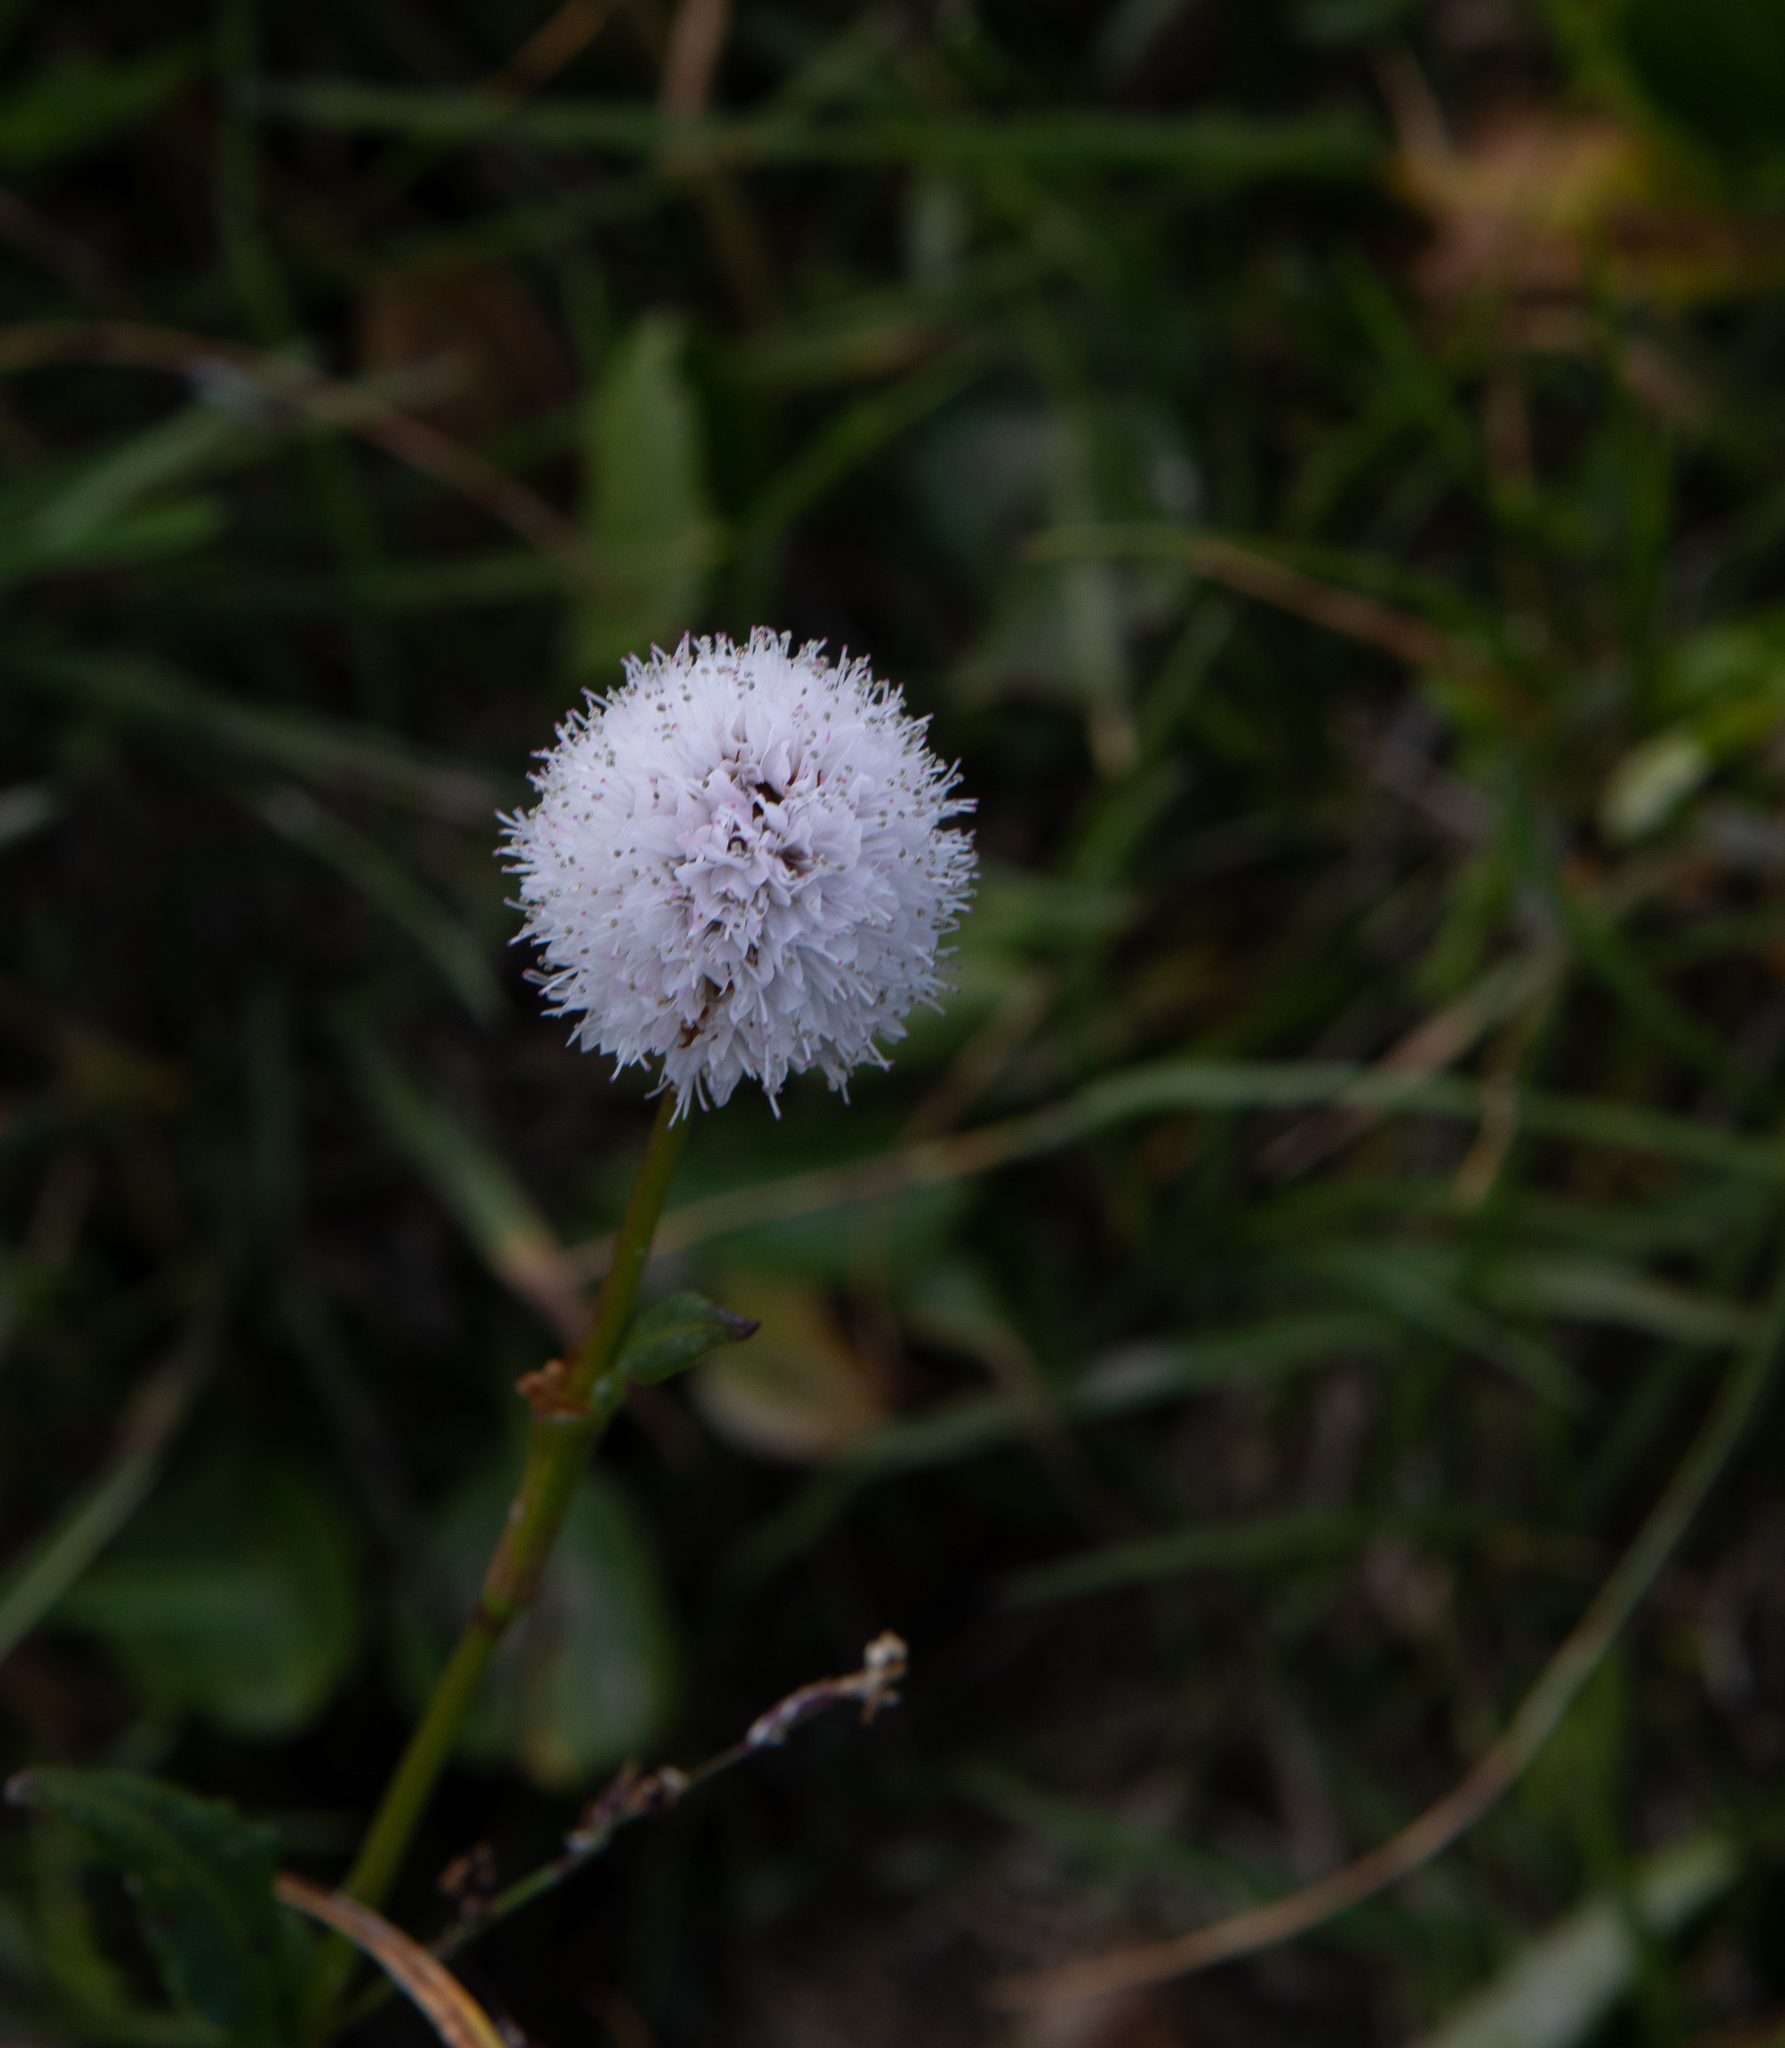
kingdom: Plantae
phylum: Tracheophyta
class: Magnoliopsida
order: Caryophyllales
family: Polygonaceae
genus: Bistorta
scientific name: Bistorta elliptica
